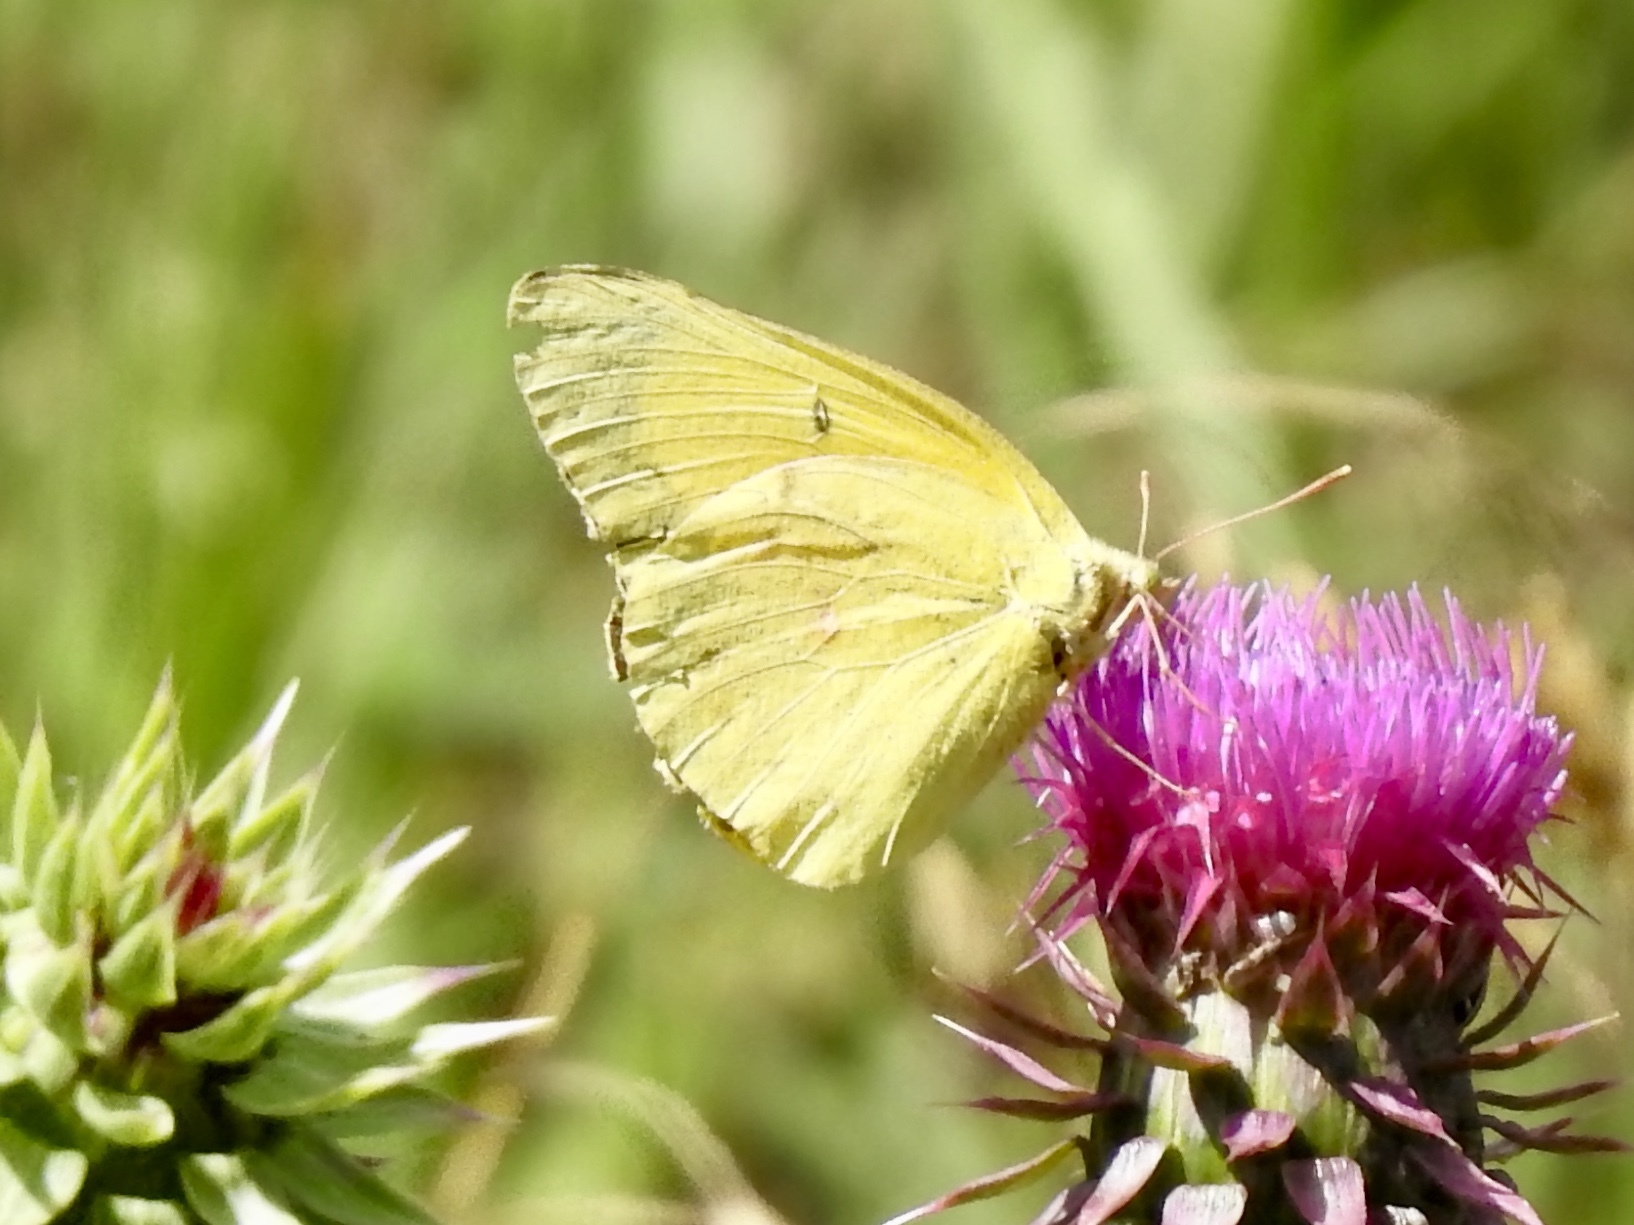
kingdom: Animalia
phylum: Arthropoda
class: Insecta
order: Lepidoptera
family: Pieridae
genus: Colias
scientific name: Colias eurytheme
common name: Alfalfa butterfly
